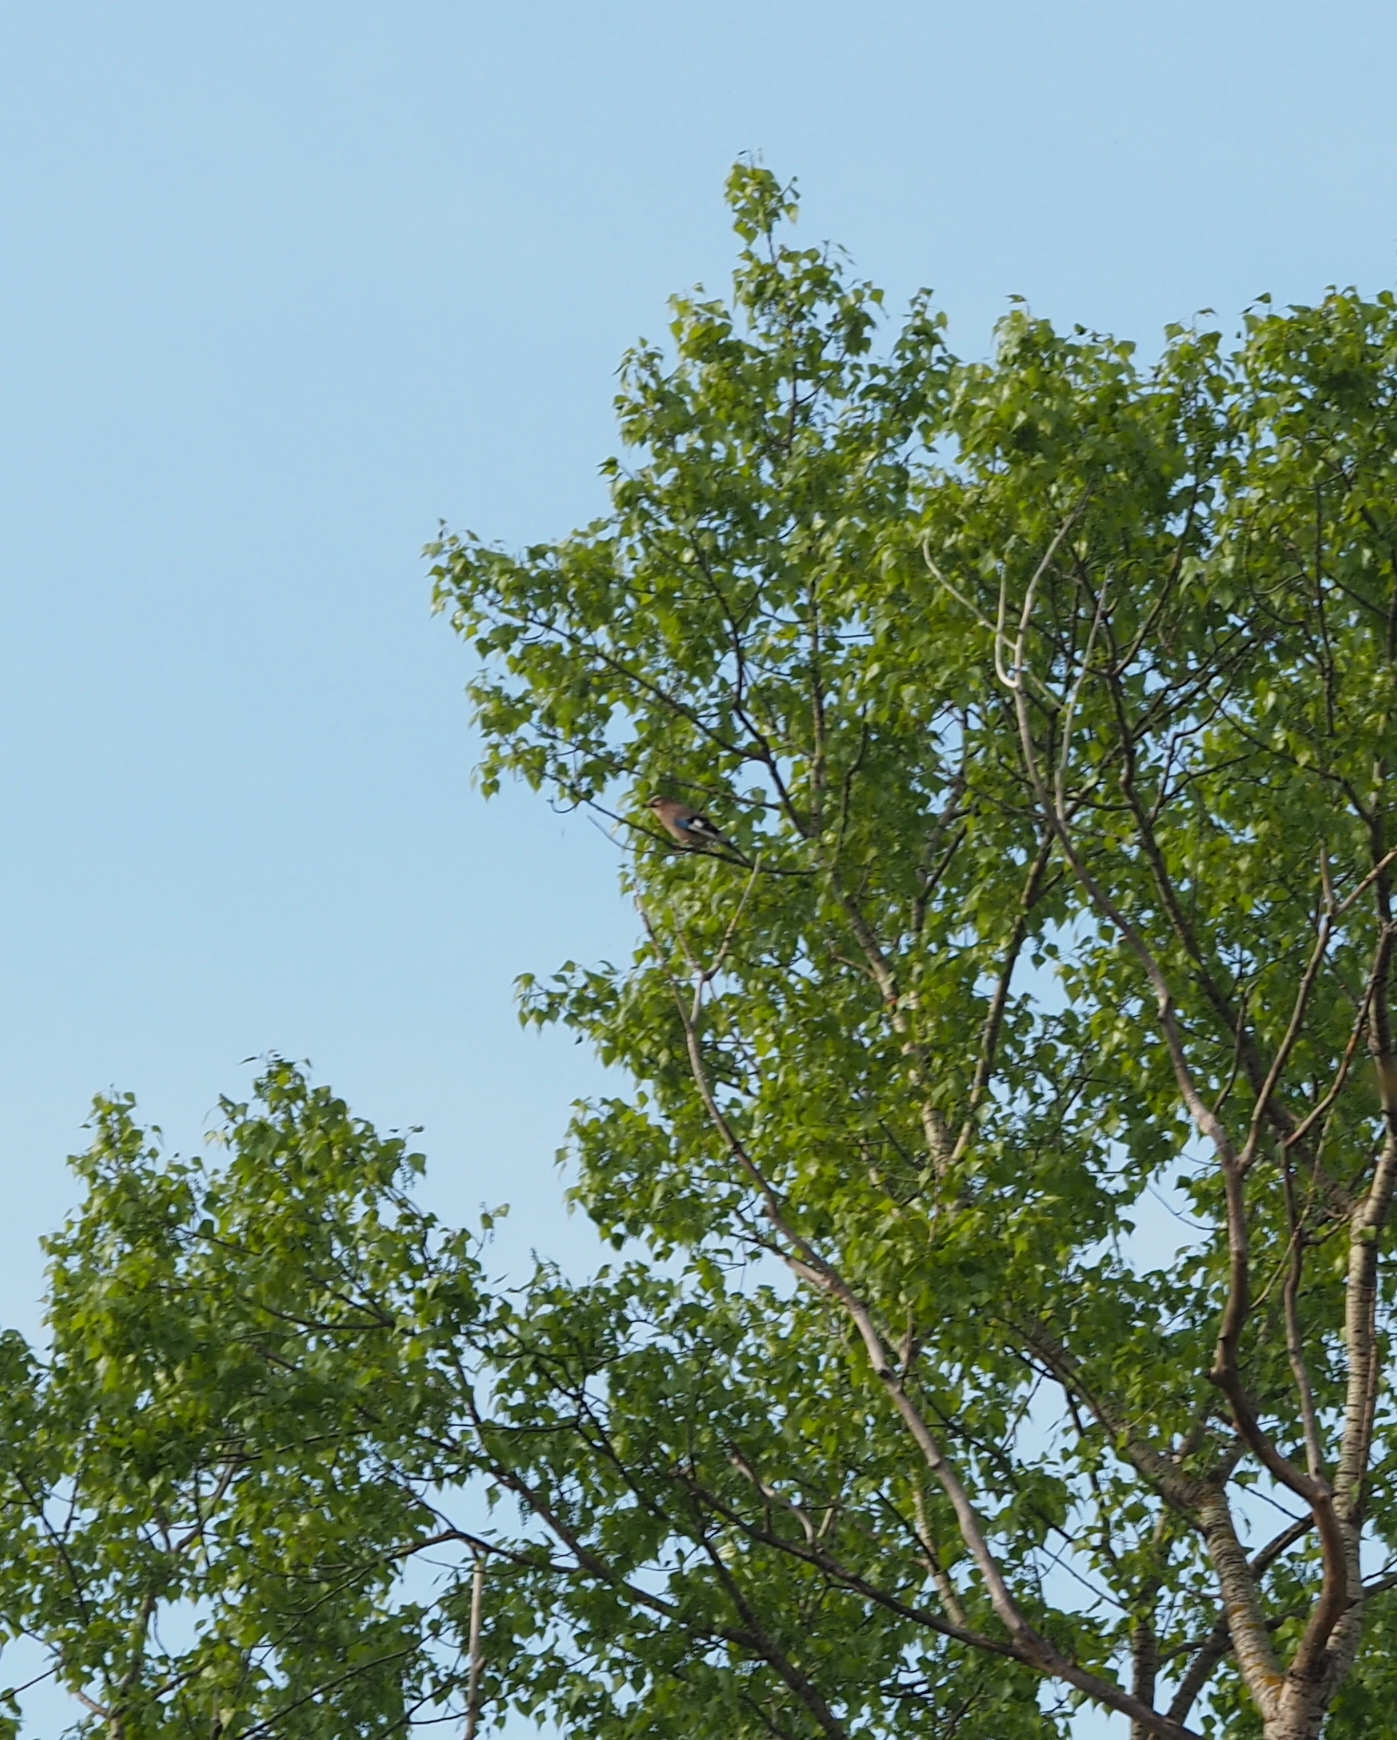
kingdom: Animalia
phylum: Chordata
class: Aves
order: Passeriformes
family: Corvidae
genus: Garrulus
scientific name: Garrulus glandarius
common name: Eurasian jay
